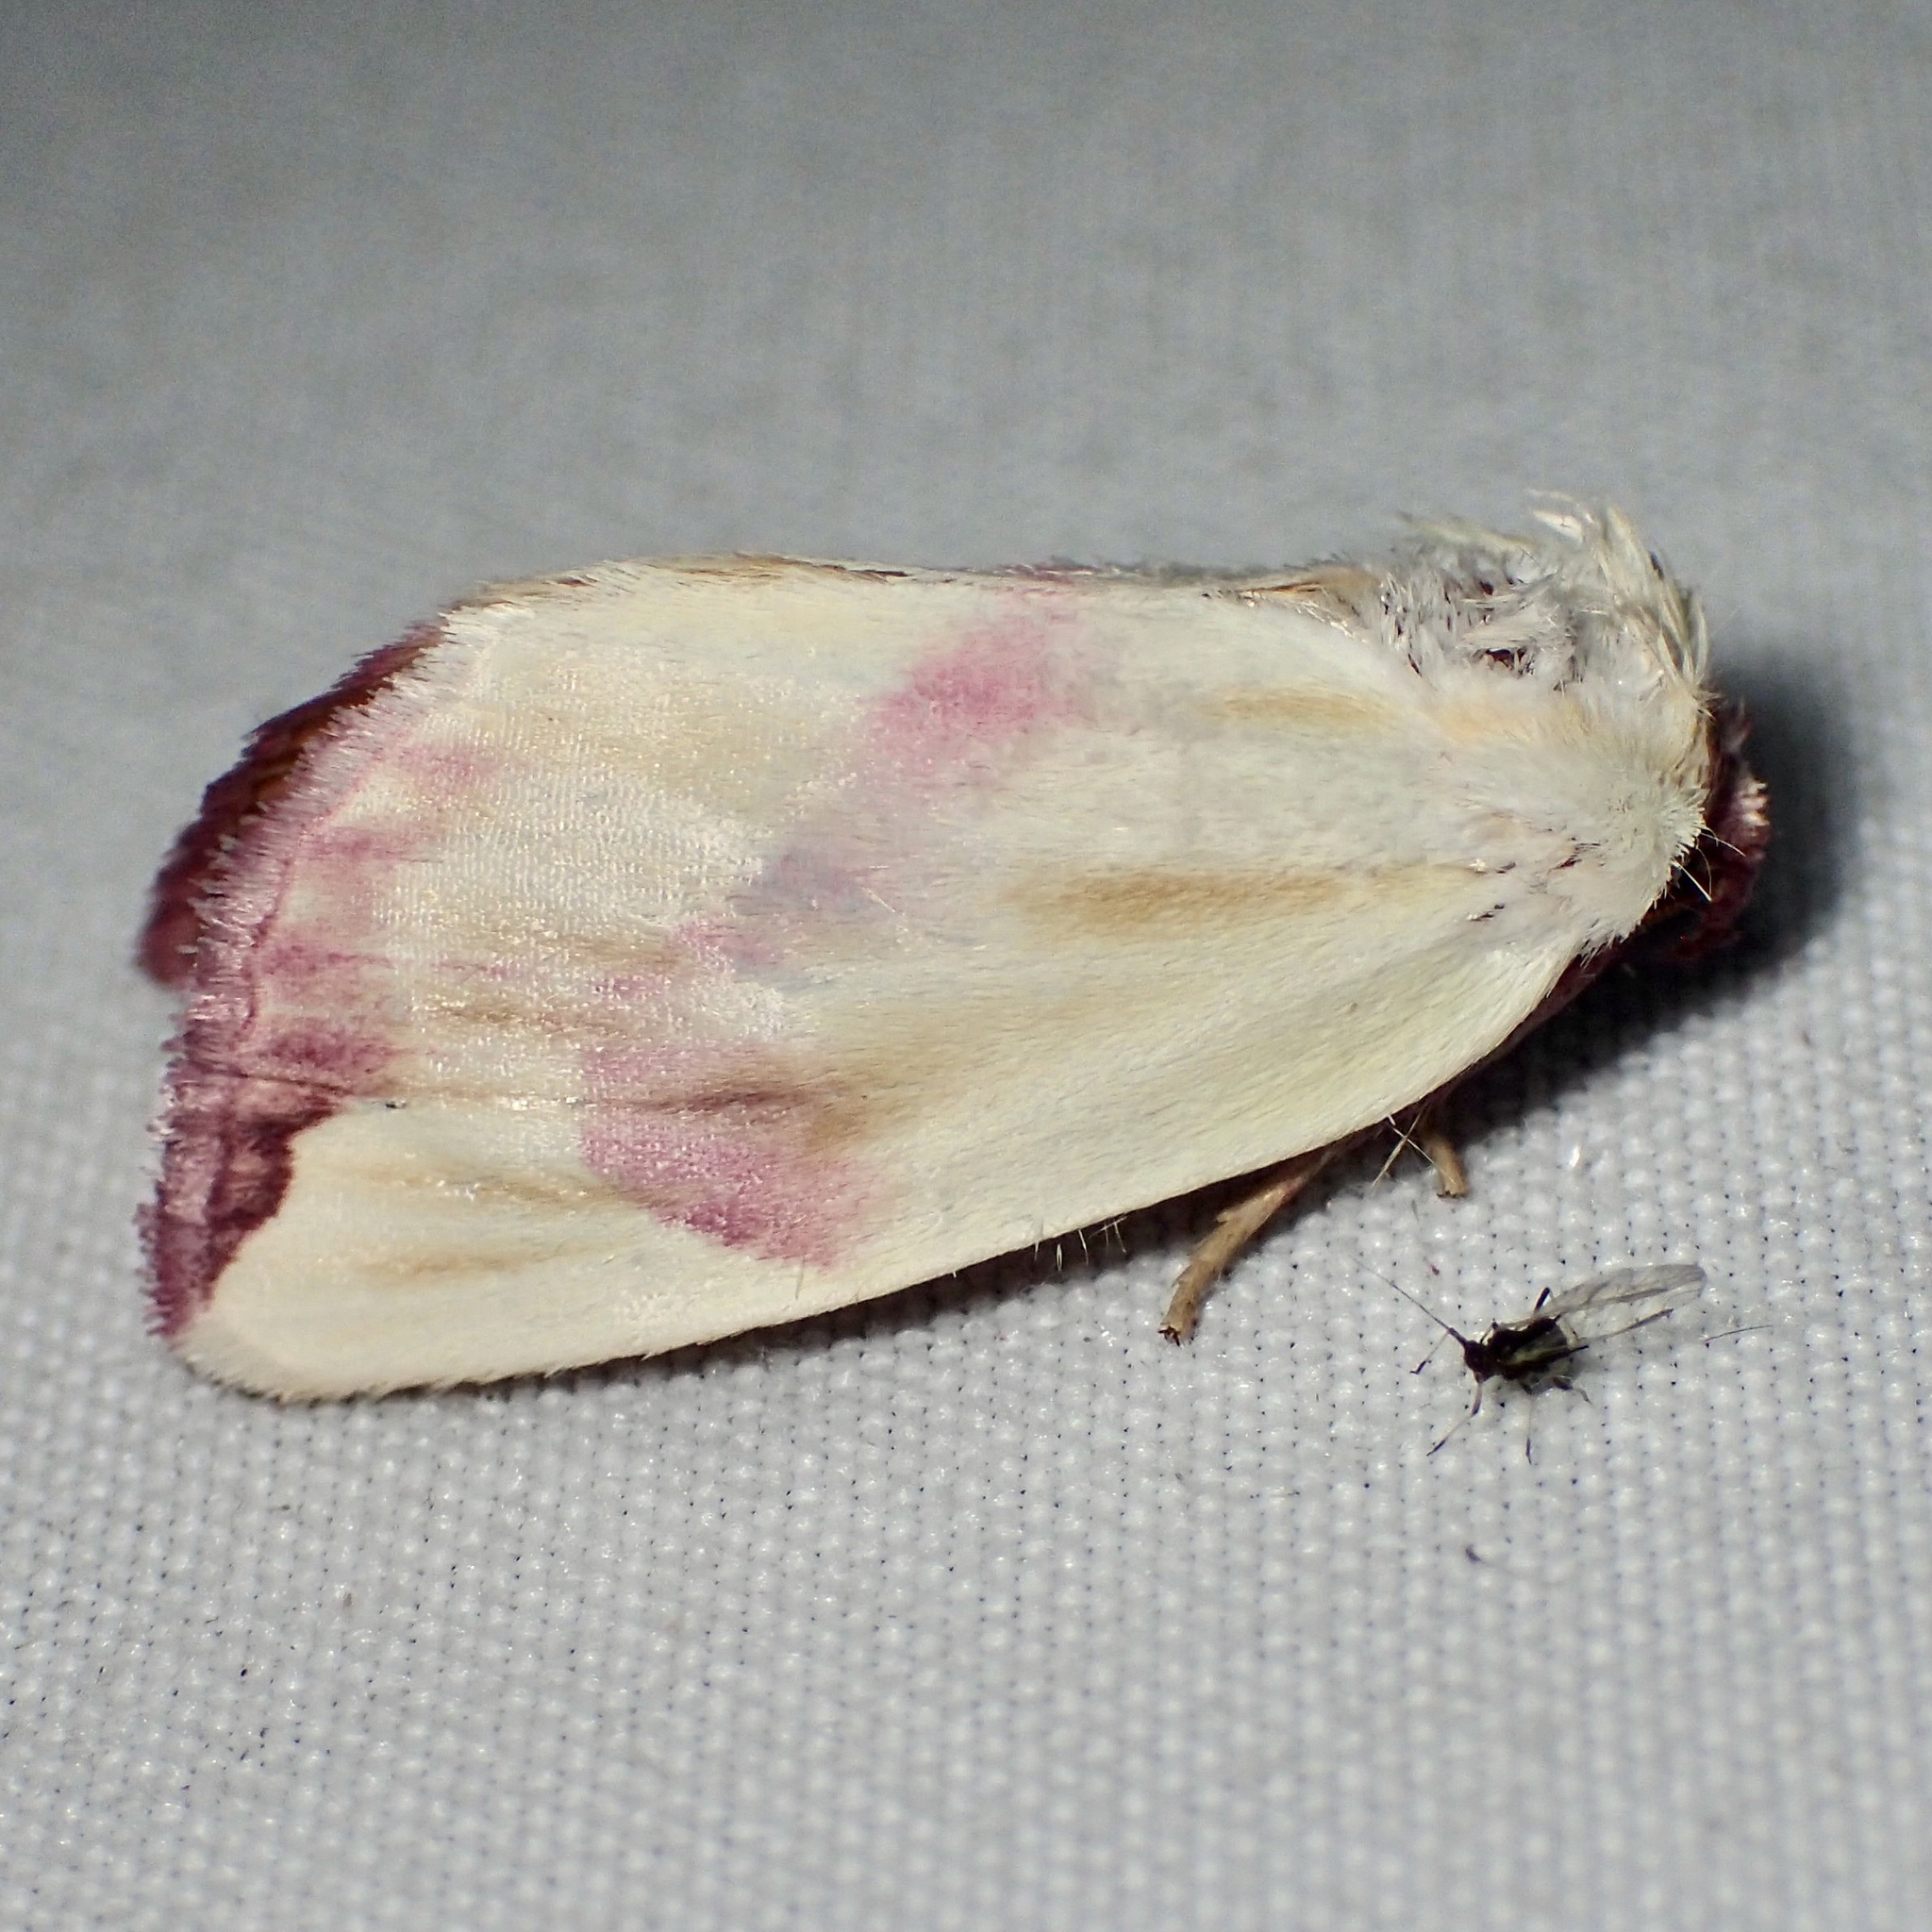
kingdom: Animalia
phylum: Arthropoda
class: Insecta
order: Lepidoptera
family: Noctuidae
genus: Thurberiphaga
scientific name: Thurberiphaga diffusa
